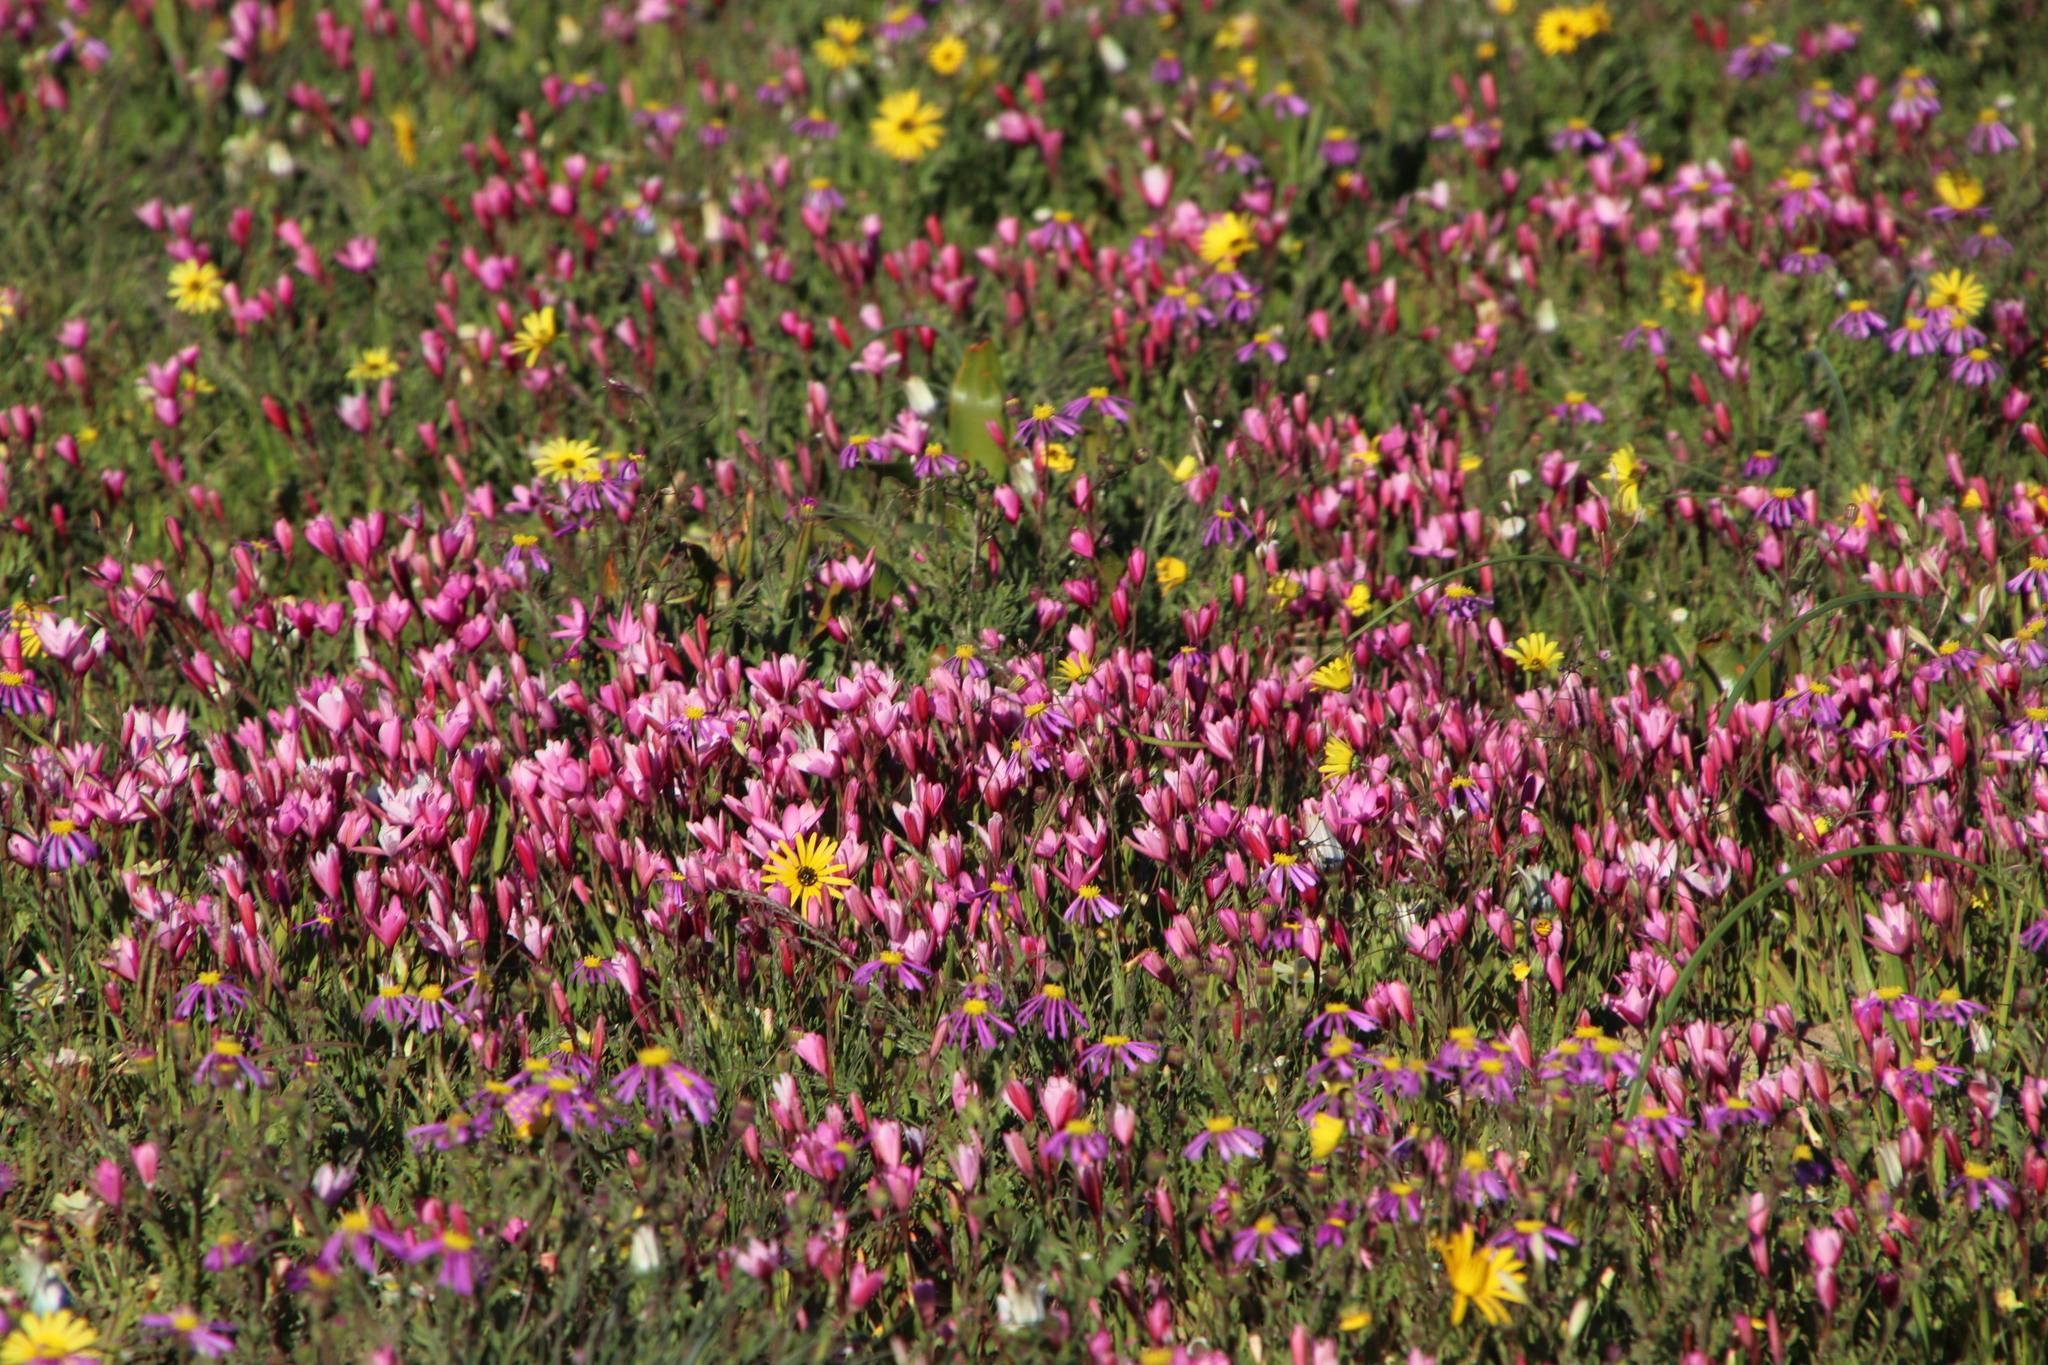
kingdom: Plantae
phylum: Tracheophyta
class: Liliopsida
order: Asparagales
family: Iridaceae
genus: Hesperantha
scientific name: Hesperantha pauciflora
